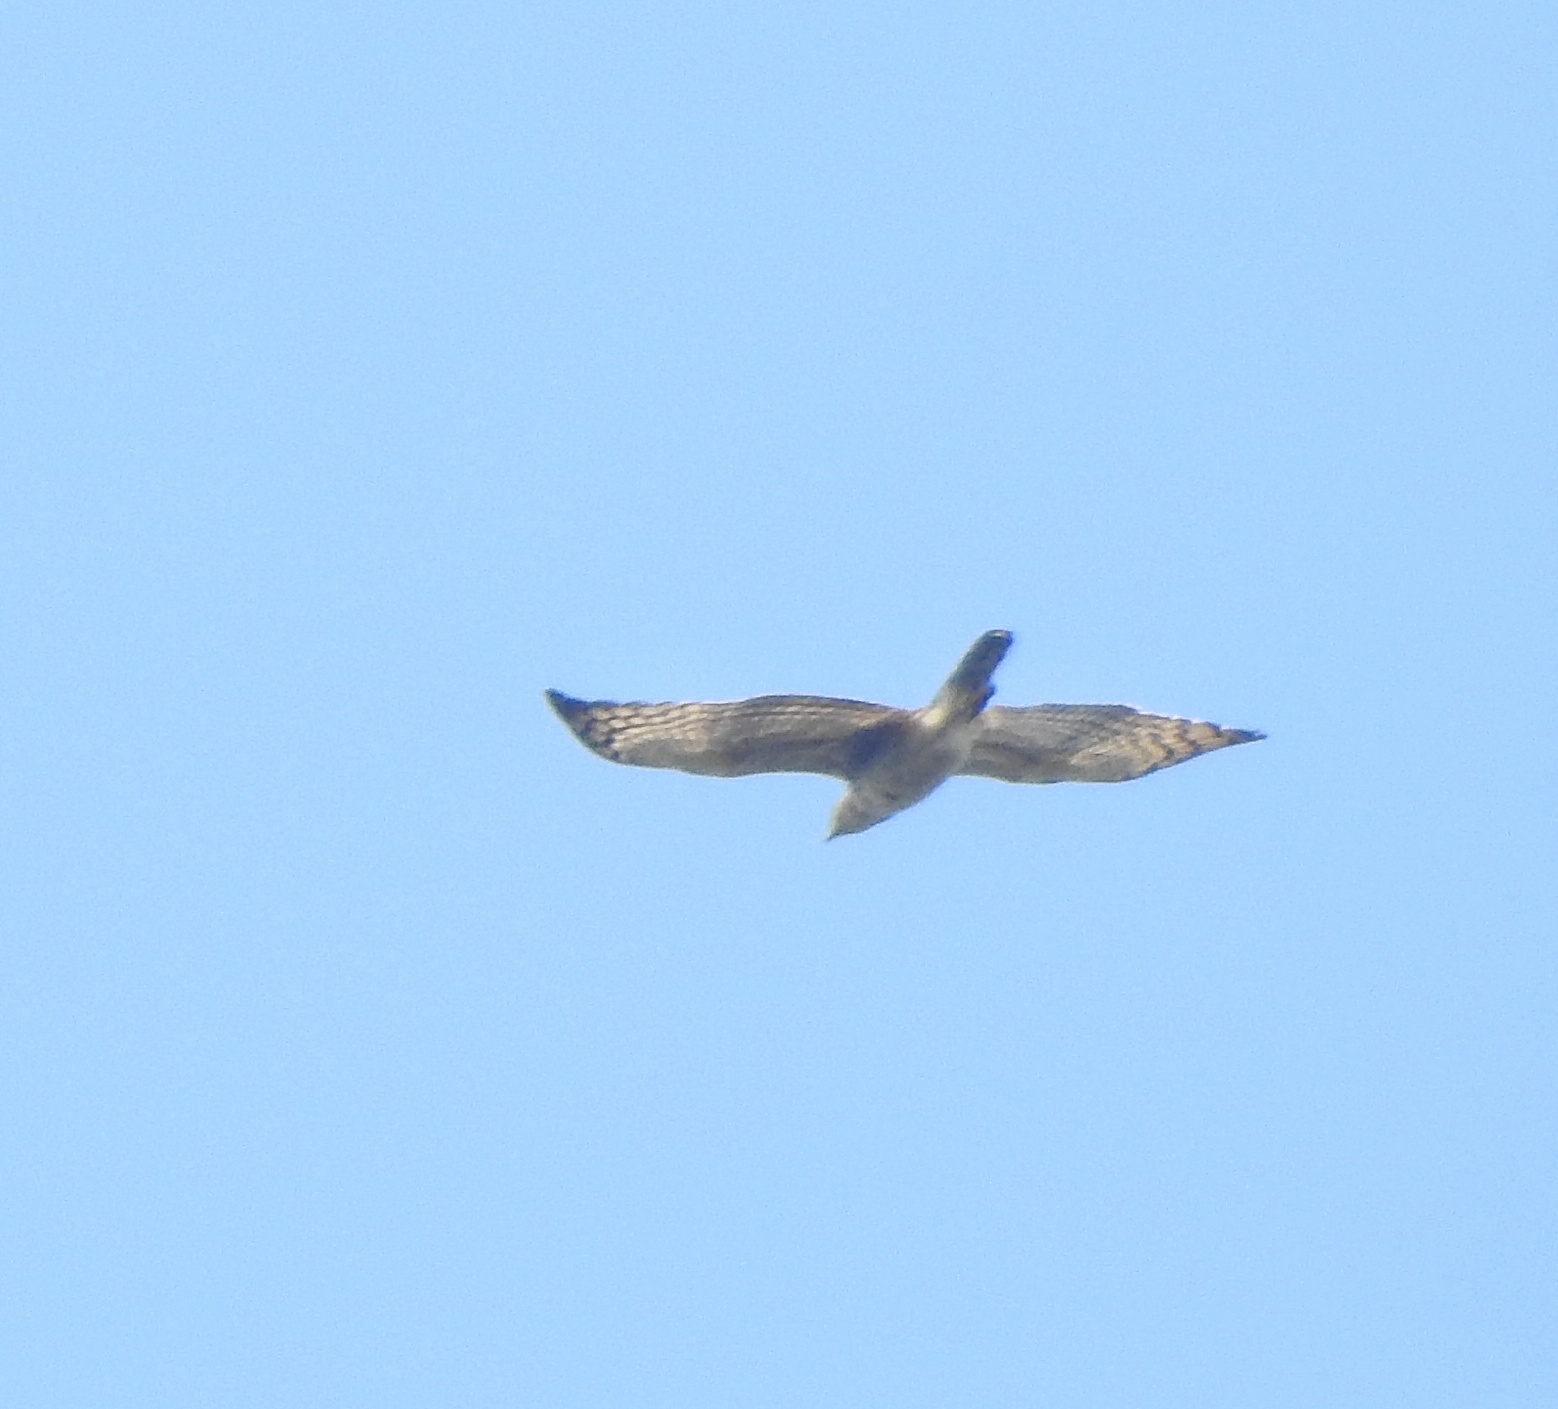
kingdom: Animalia
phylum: Chordata
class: Aves
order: Accipitriformes
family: Accipitridae
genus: Pernis
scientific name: Pernis ptilorhynchus
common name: Crested honey buzzard
